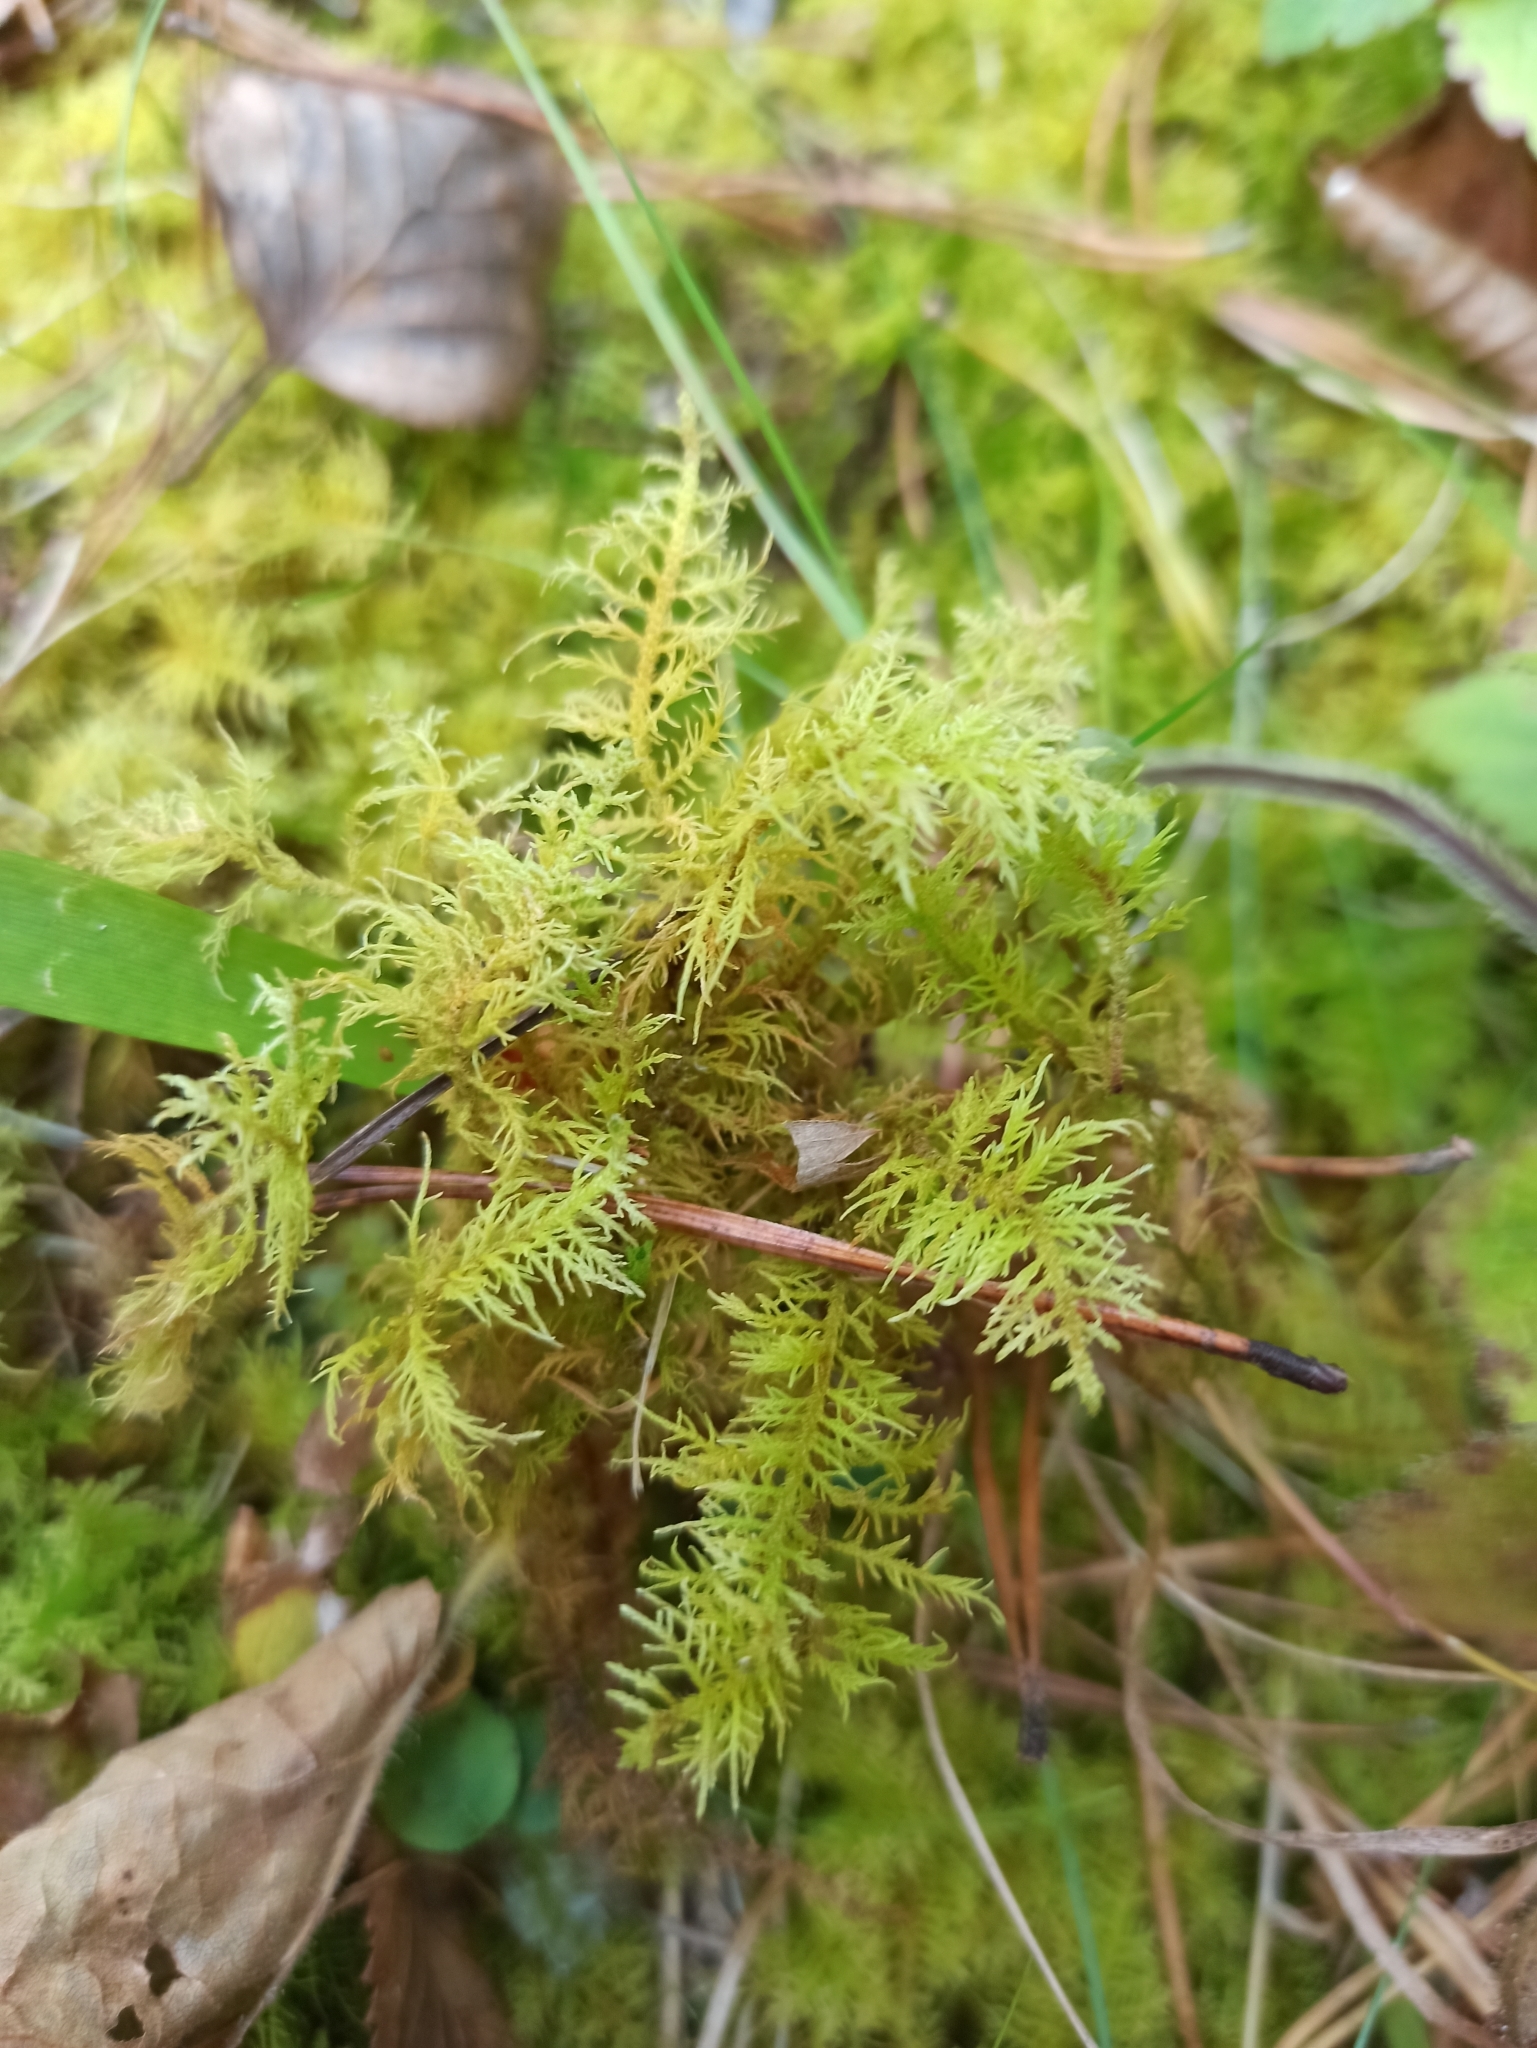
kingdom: Plantae
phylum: Bryophyta
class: Bryopsida
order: Hypnales
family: Hylocomiaceae
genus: Hylocomium
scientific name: Hylocomium splendens
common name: Stairstep moss
